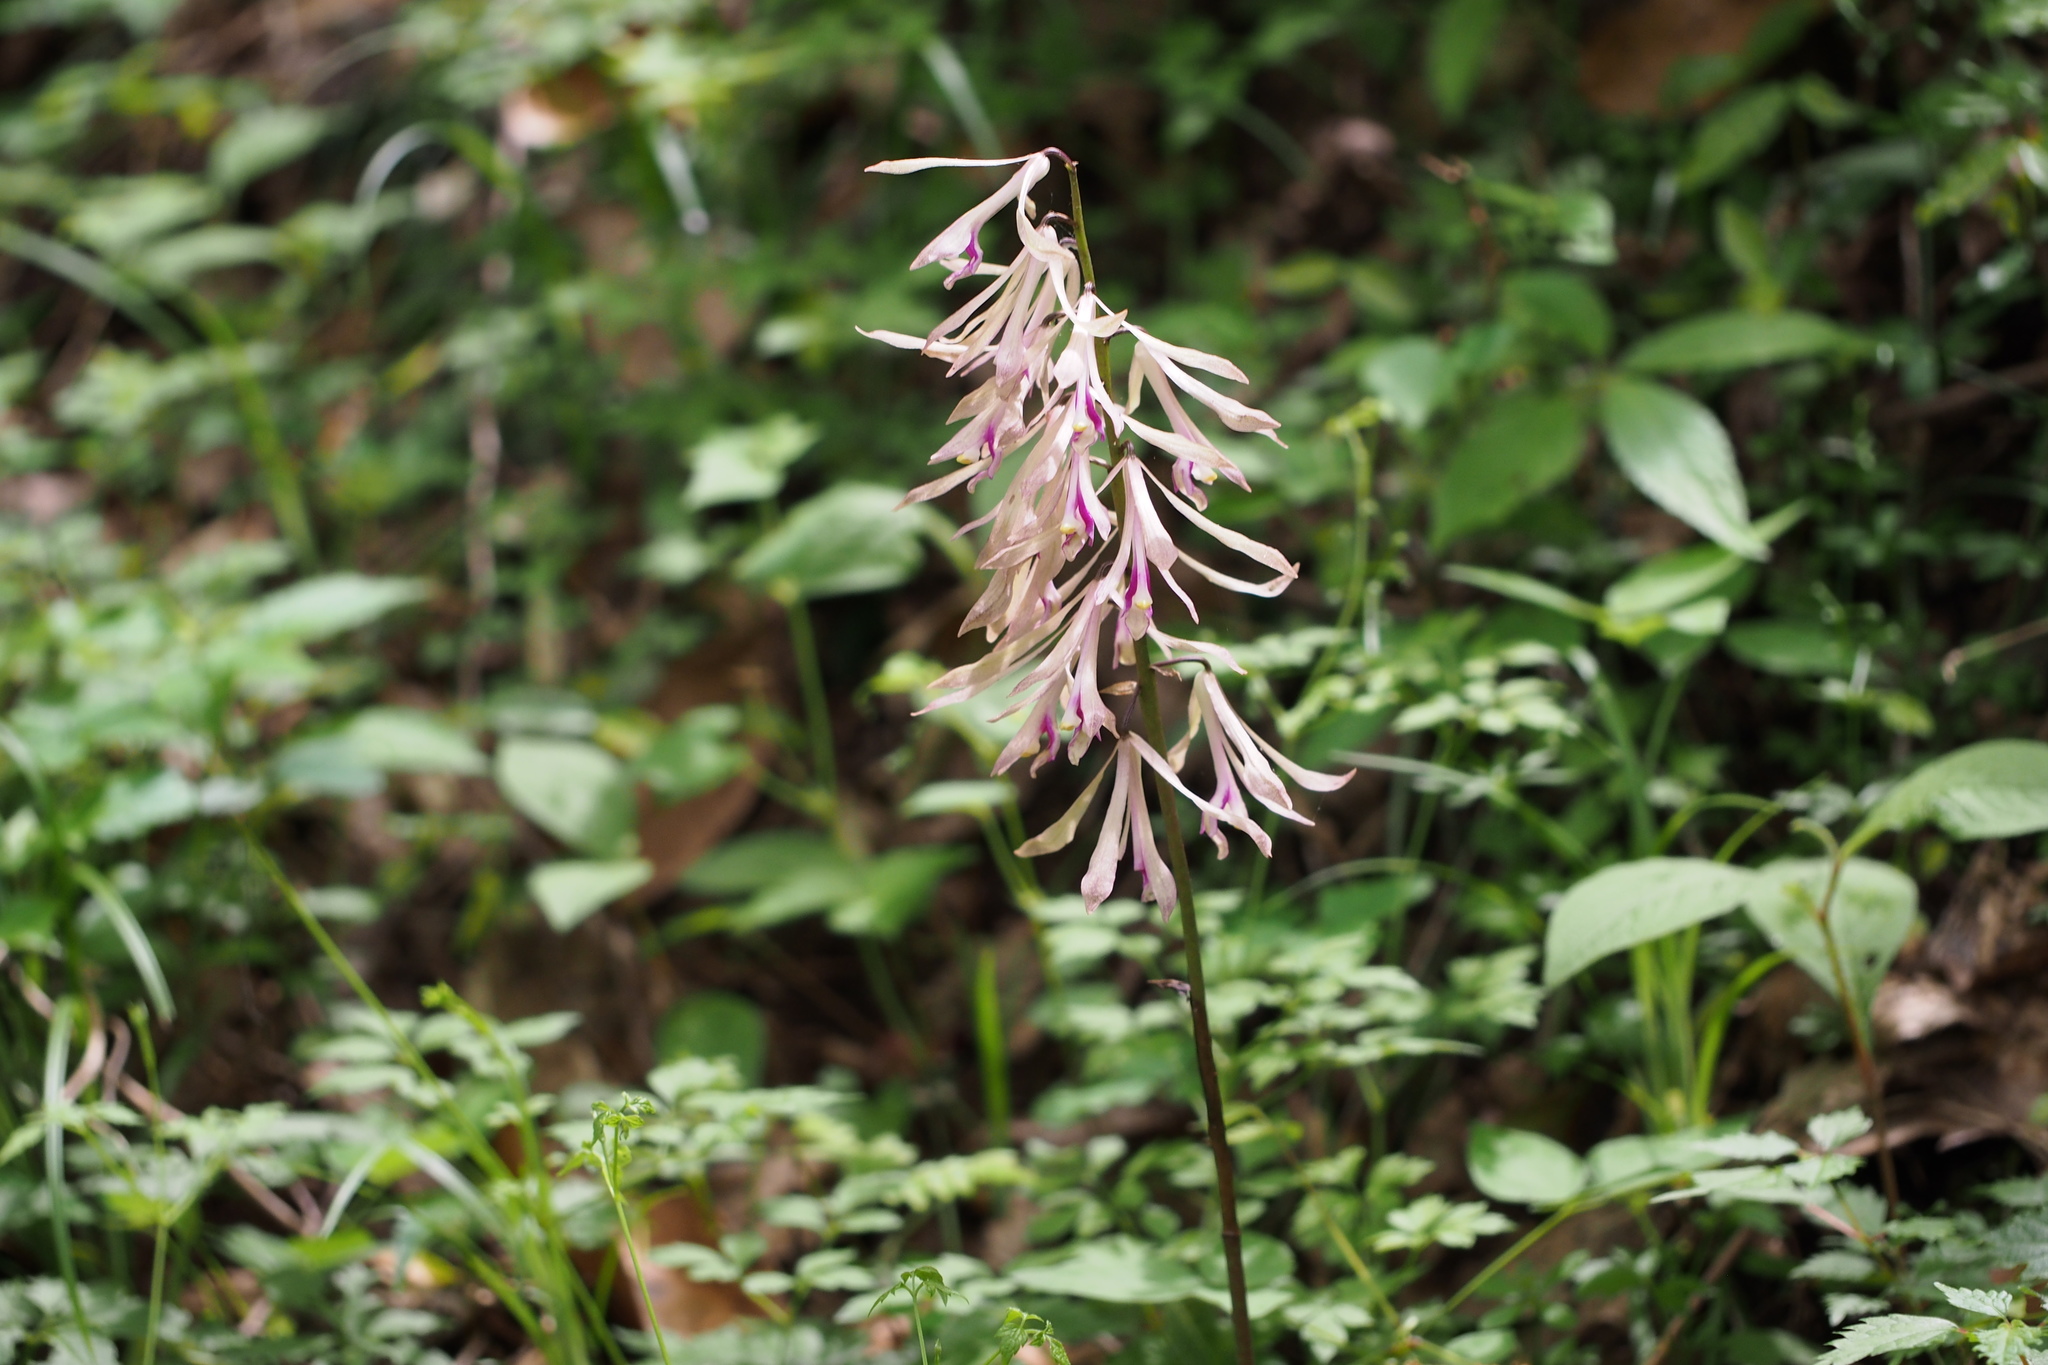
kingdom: Plantae
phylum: Tracheophyta
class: Liliopsida
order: Asparagales
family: Orchidaceae
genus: Cremastra
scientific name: Cremastra appendiculata
